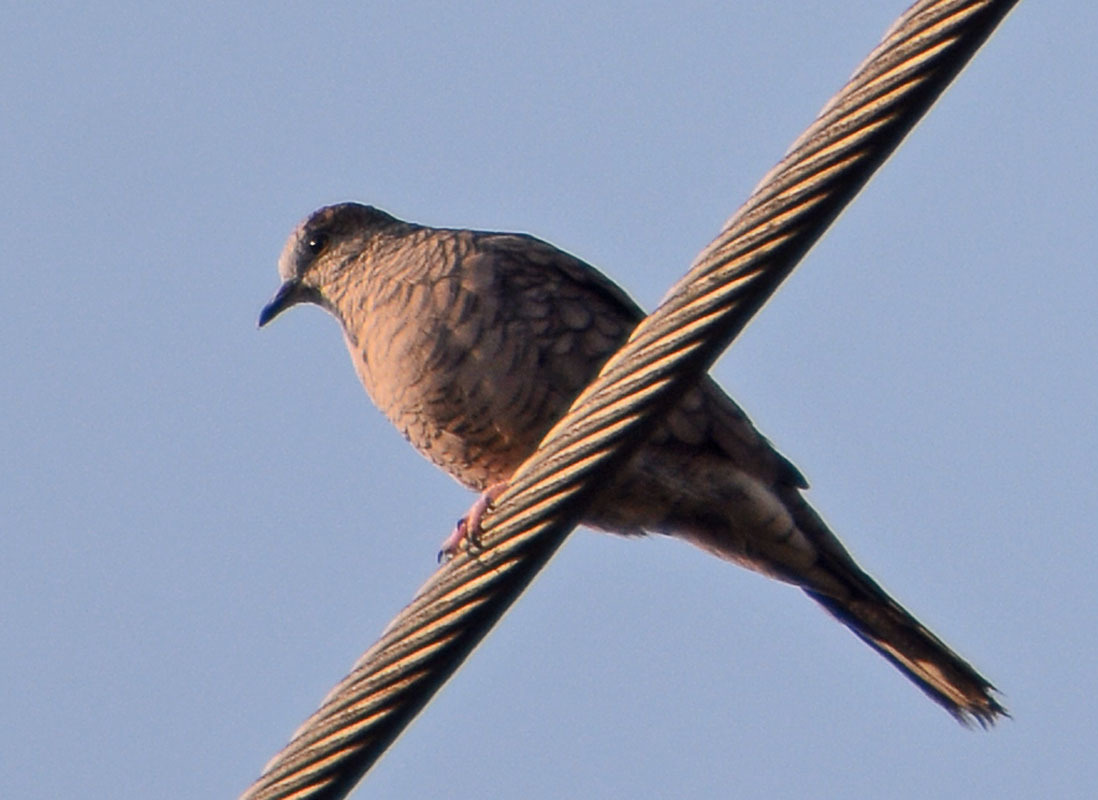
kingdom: Animalia
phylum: Chordata
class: Aves
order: Columbiformes
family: Columbidae
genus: Columbina
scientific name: Columbina inca
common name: Inca dove
